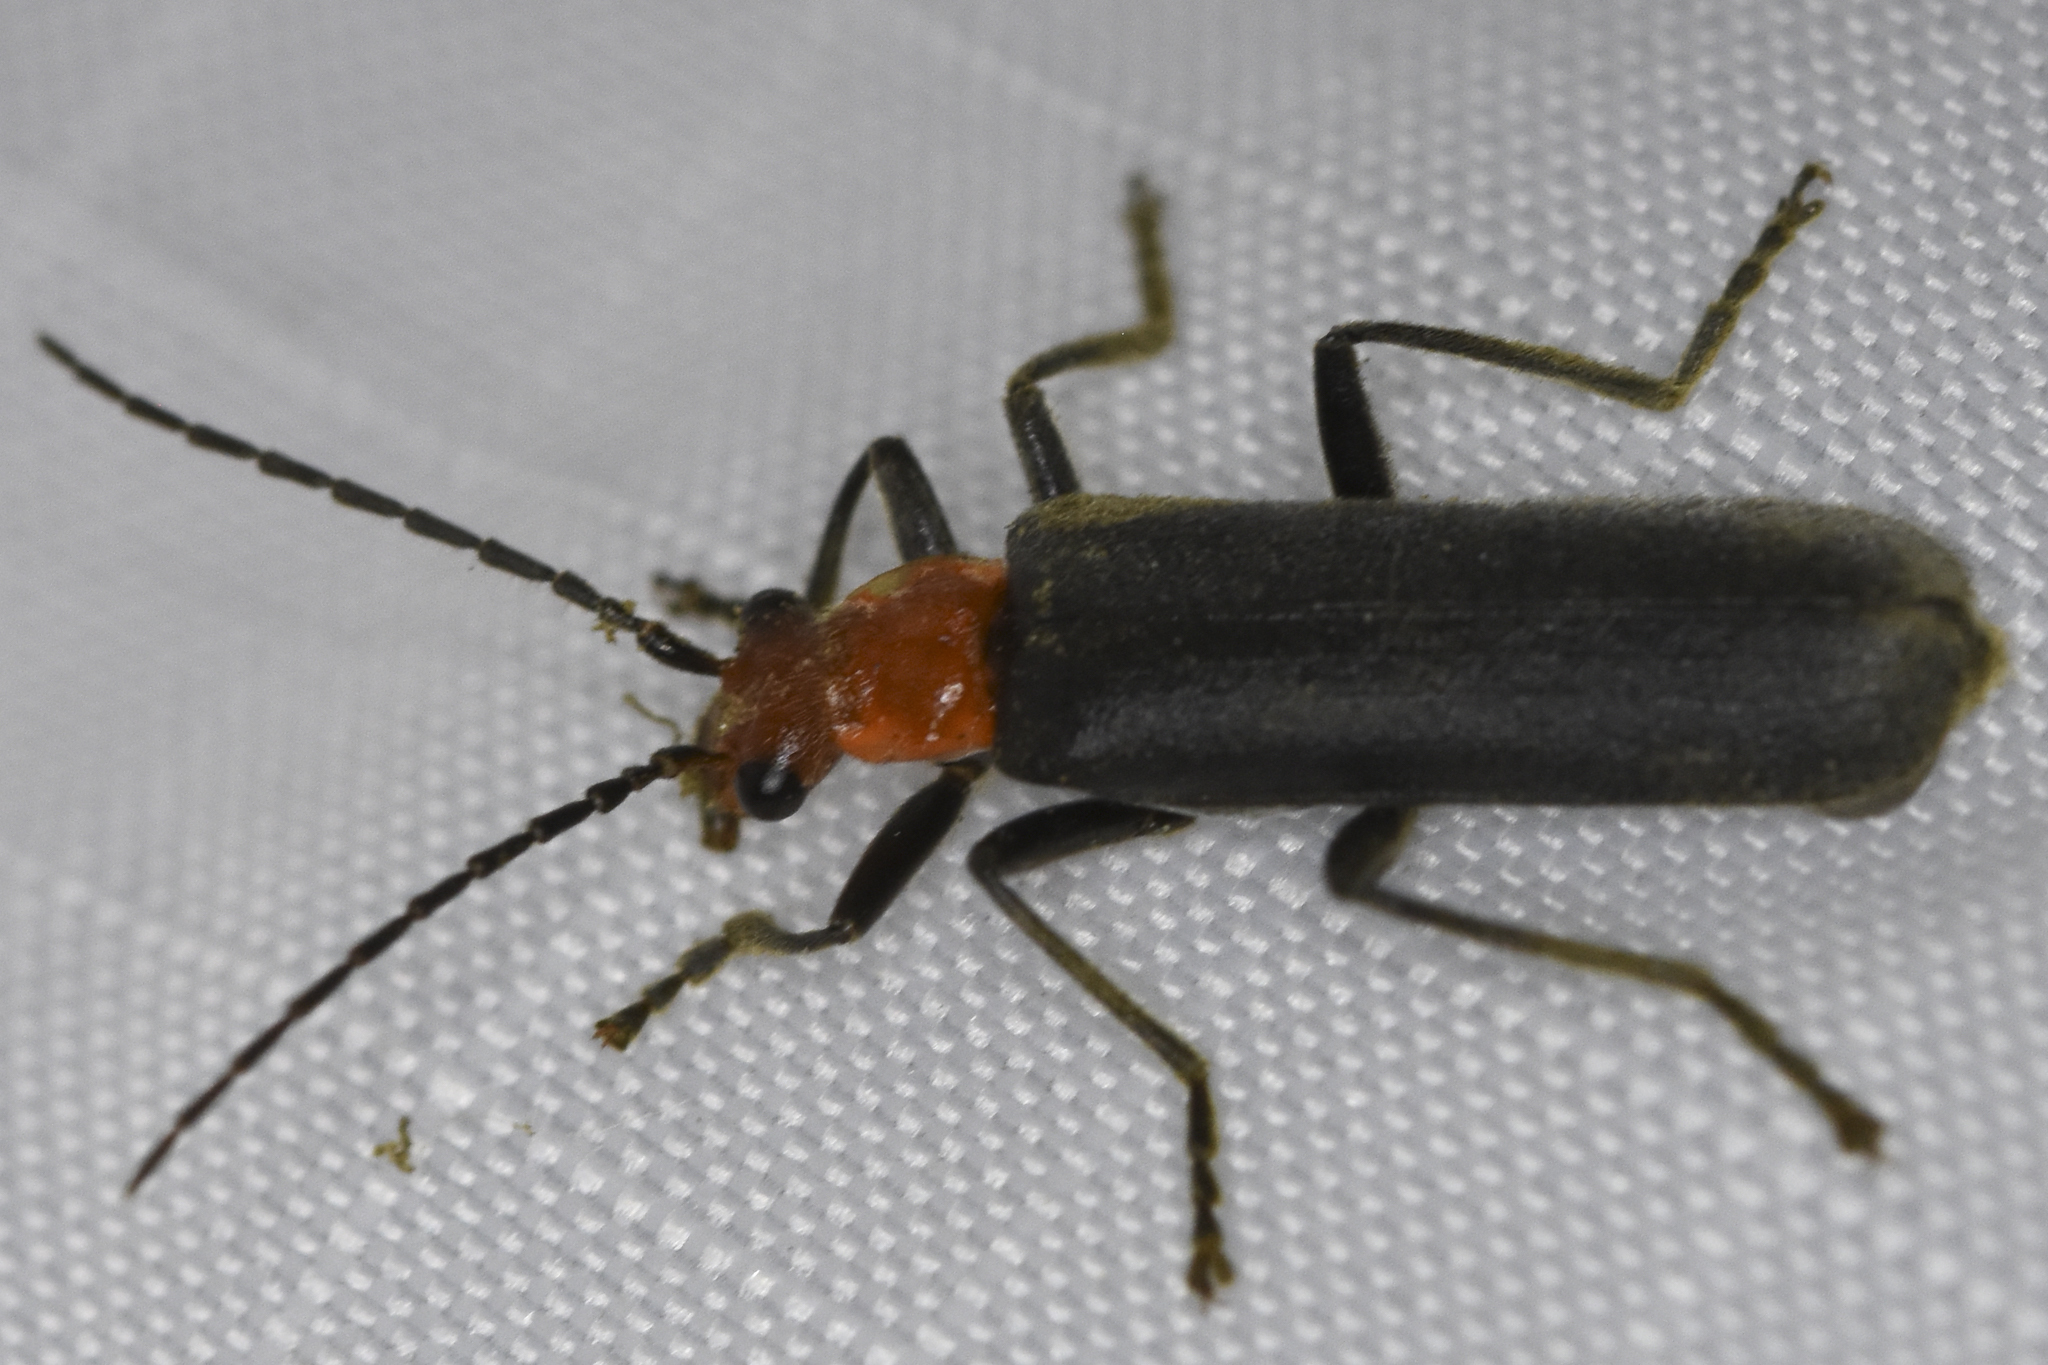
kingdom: Animalia
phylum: Arthropoda
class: Insecta
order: Coleoptera
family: Cantharidae
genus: Podabrus
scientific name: Podabrus pruinosus
